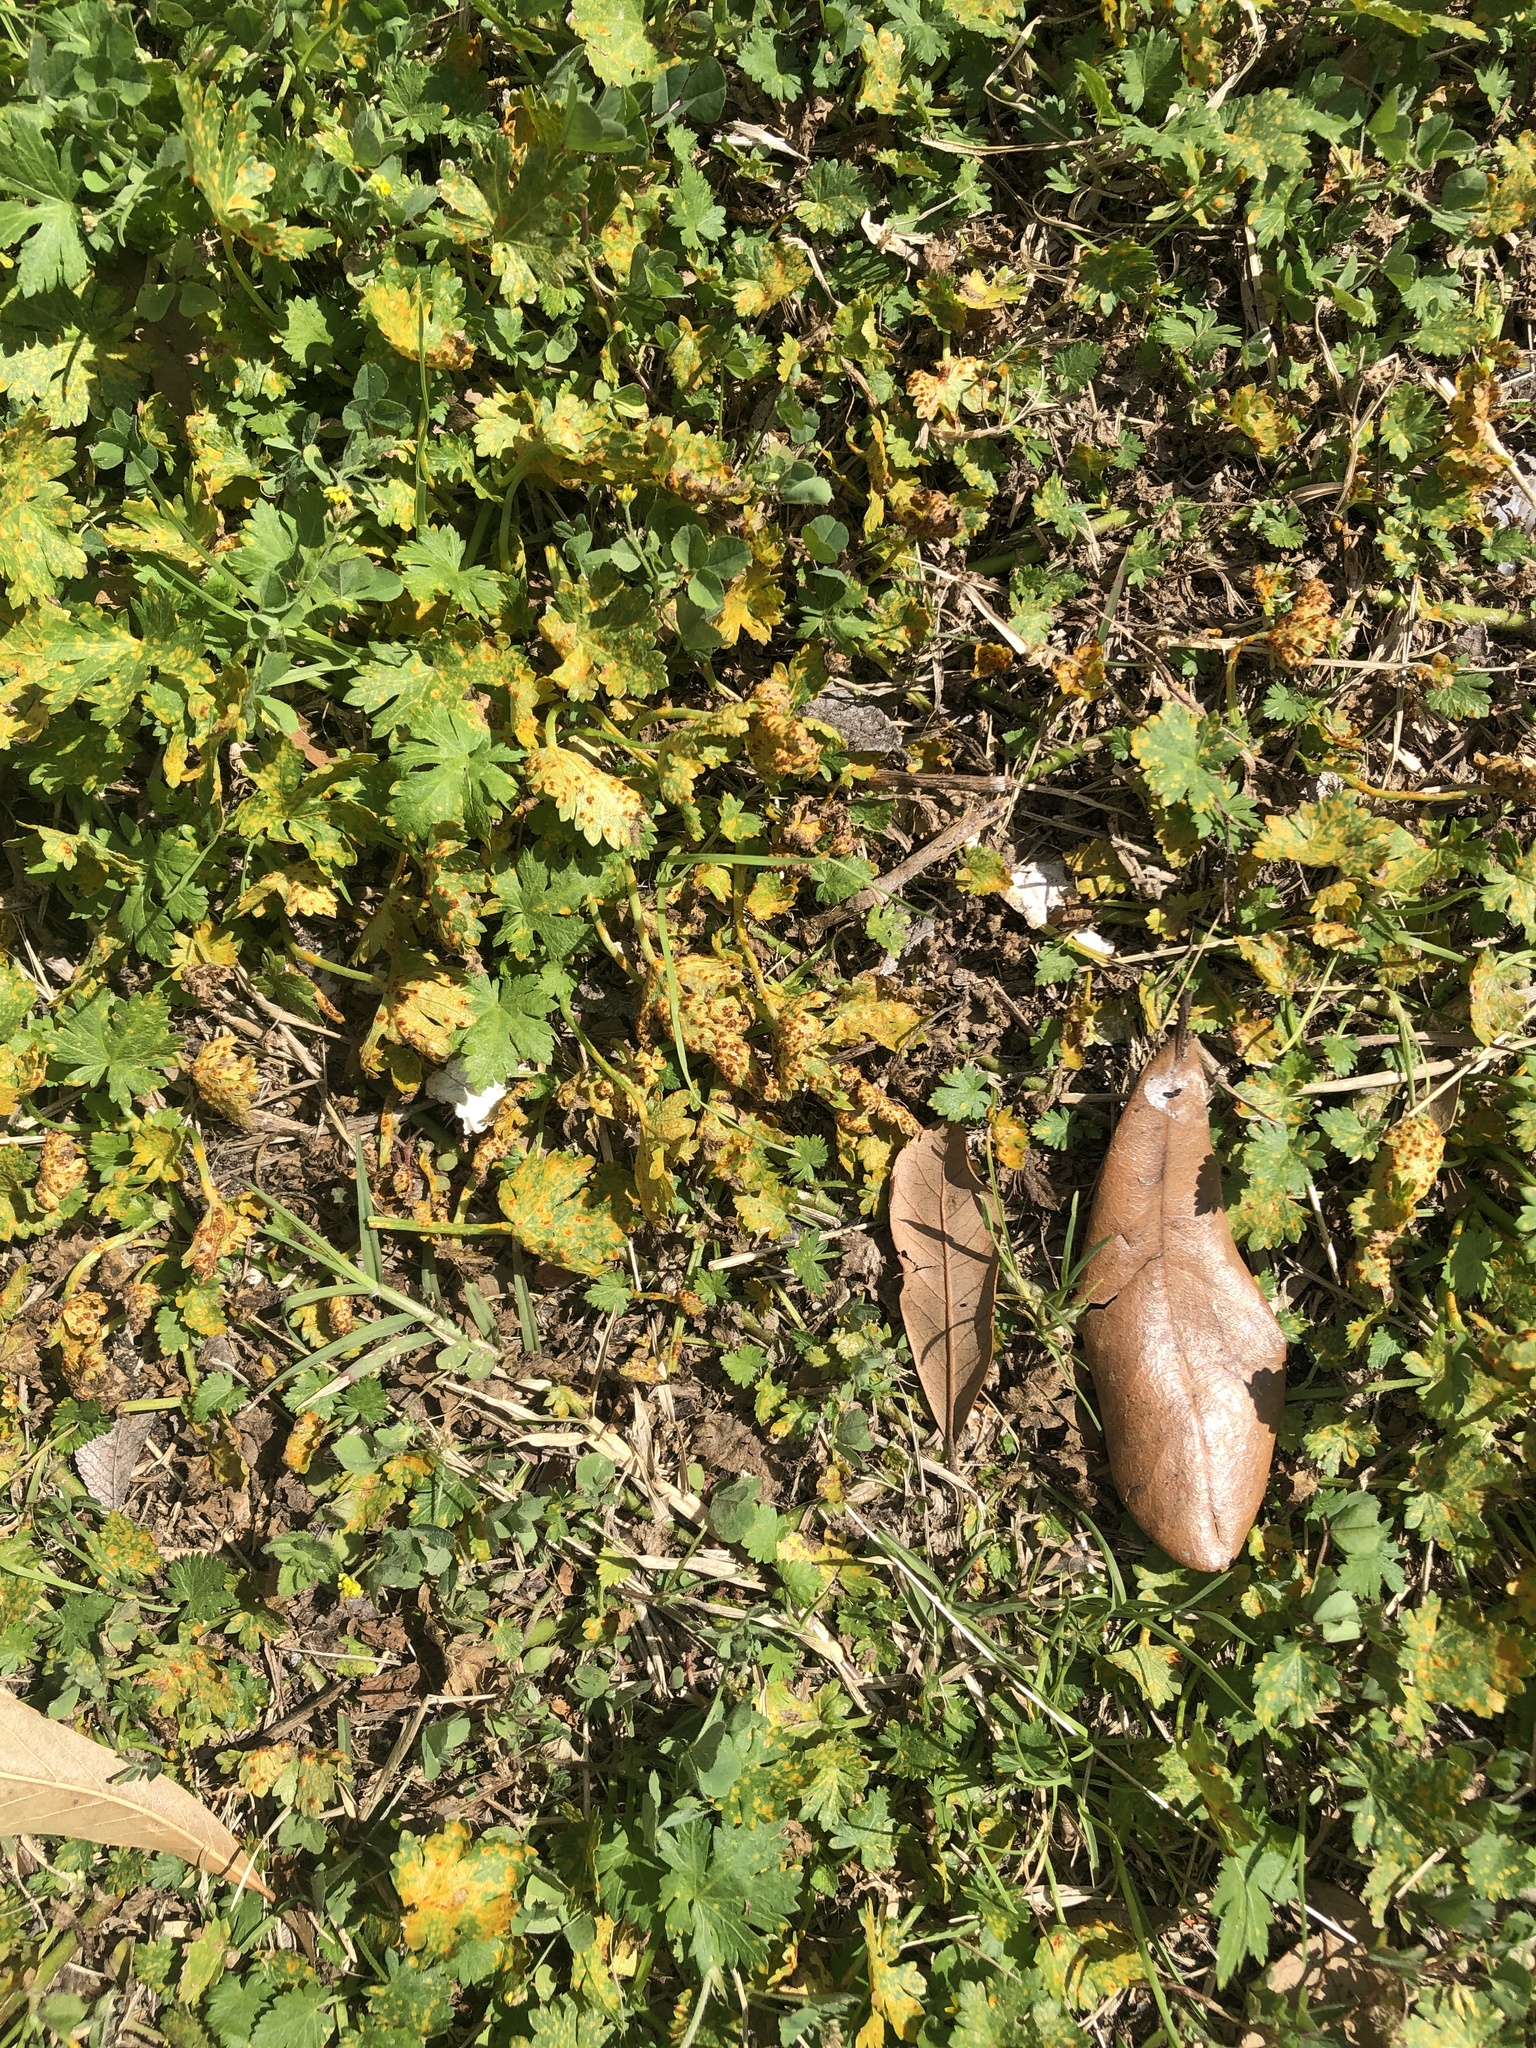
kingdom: Fungi
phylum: Basidiomycota
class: Pucciniomycetes
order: Pucciniales
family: Pucciniaceae
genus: Puccinia
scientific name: Puccinia modiolae
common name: Rust of bristlemallow
